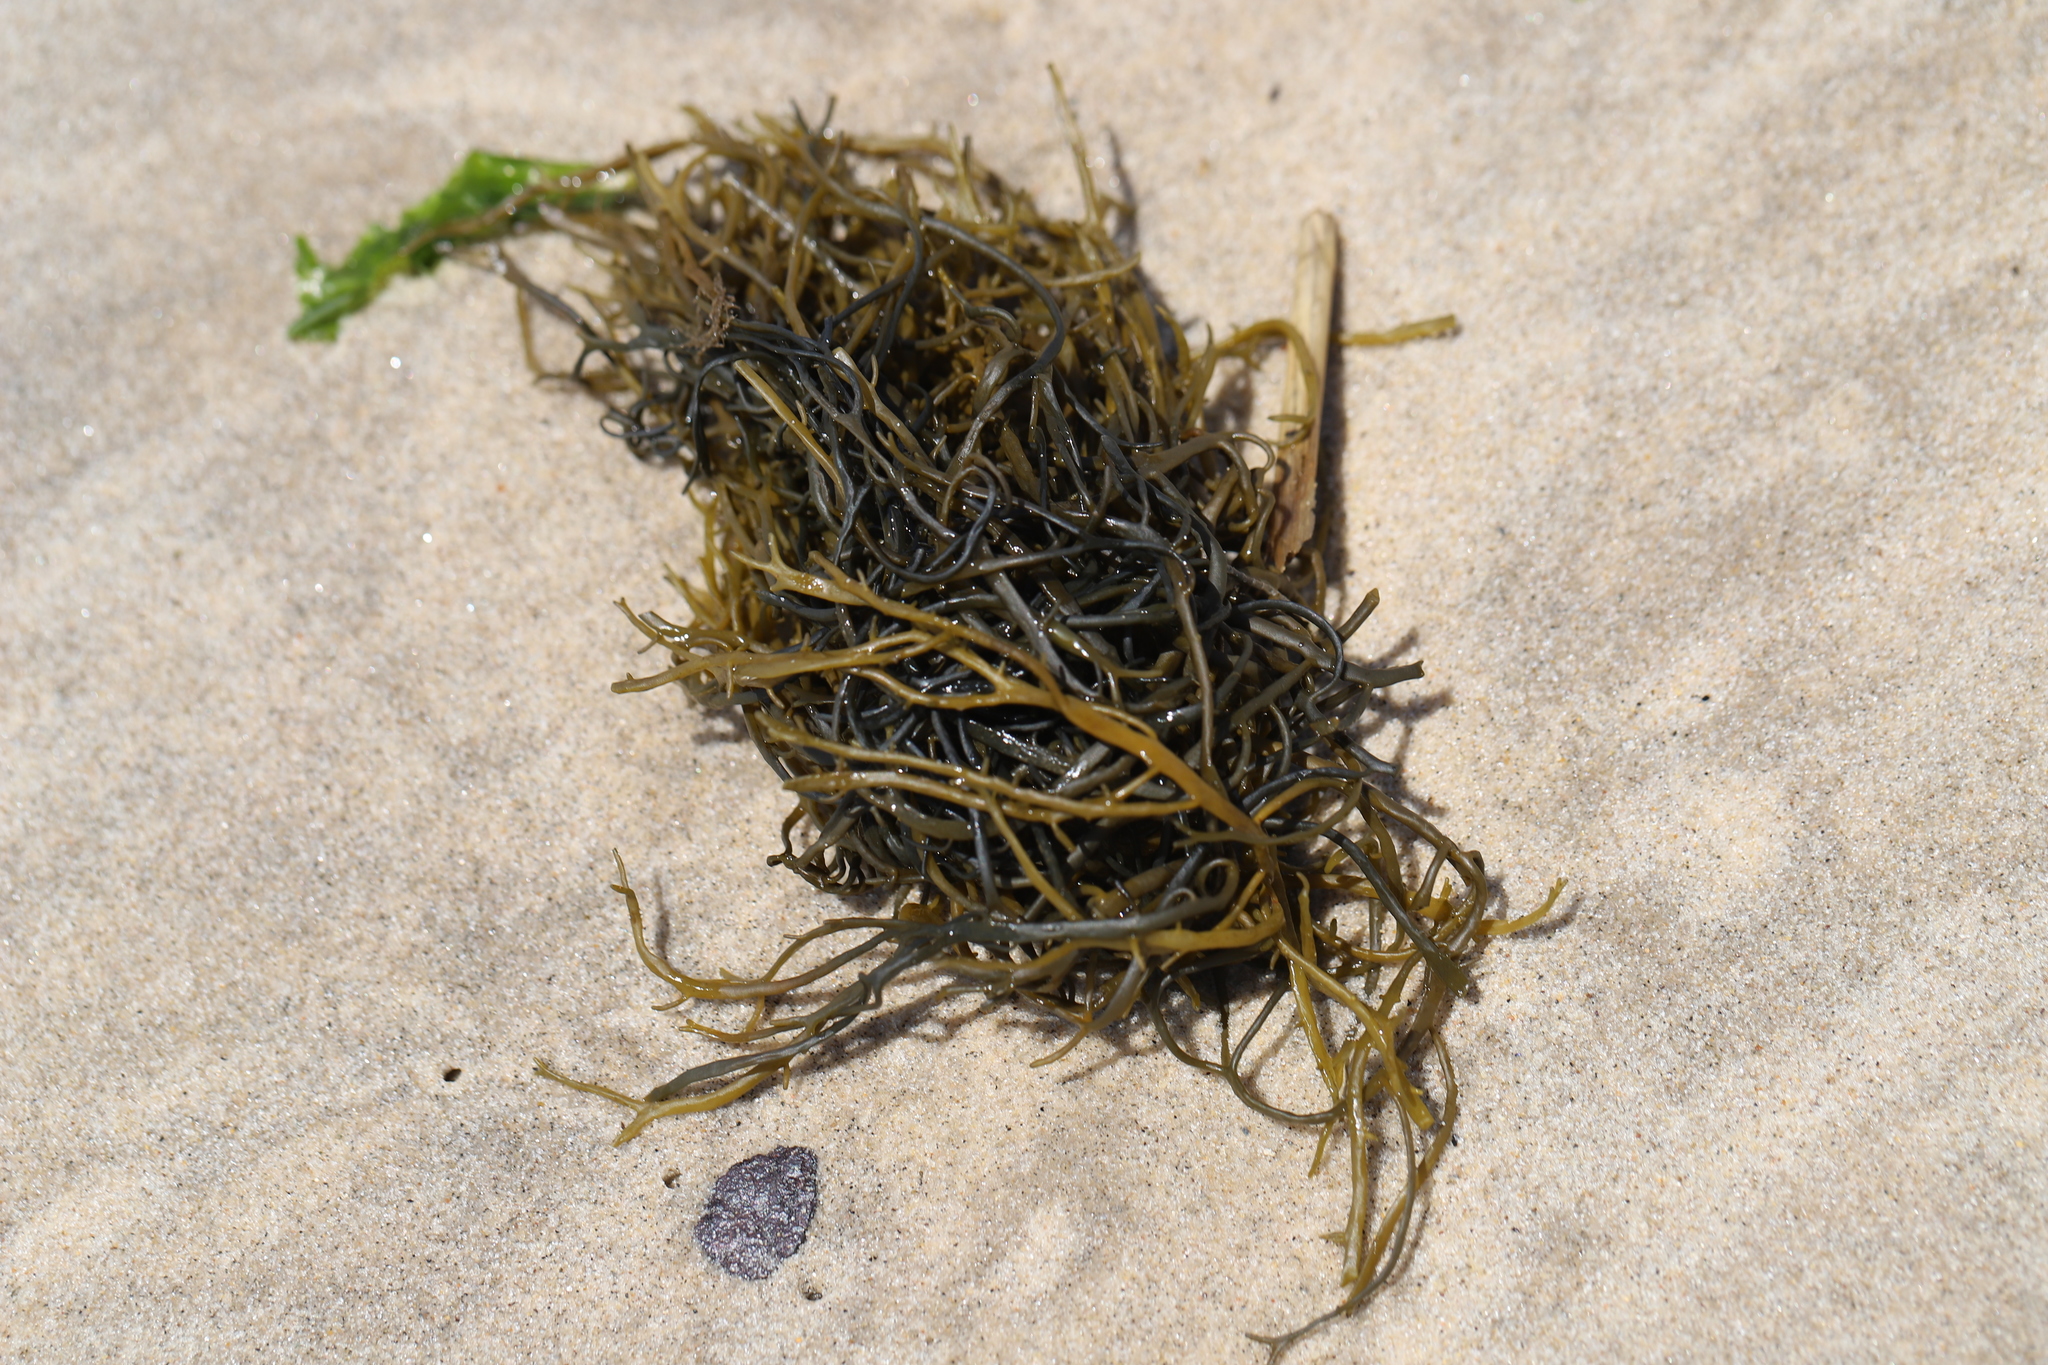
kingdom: Chromista
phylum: Ochrophyta
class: Phaeophyceae
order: Fucales
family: Fucaceae
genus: Ascophyllum
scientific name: Ascophyllum nodosum
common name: Knotted wrack
